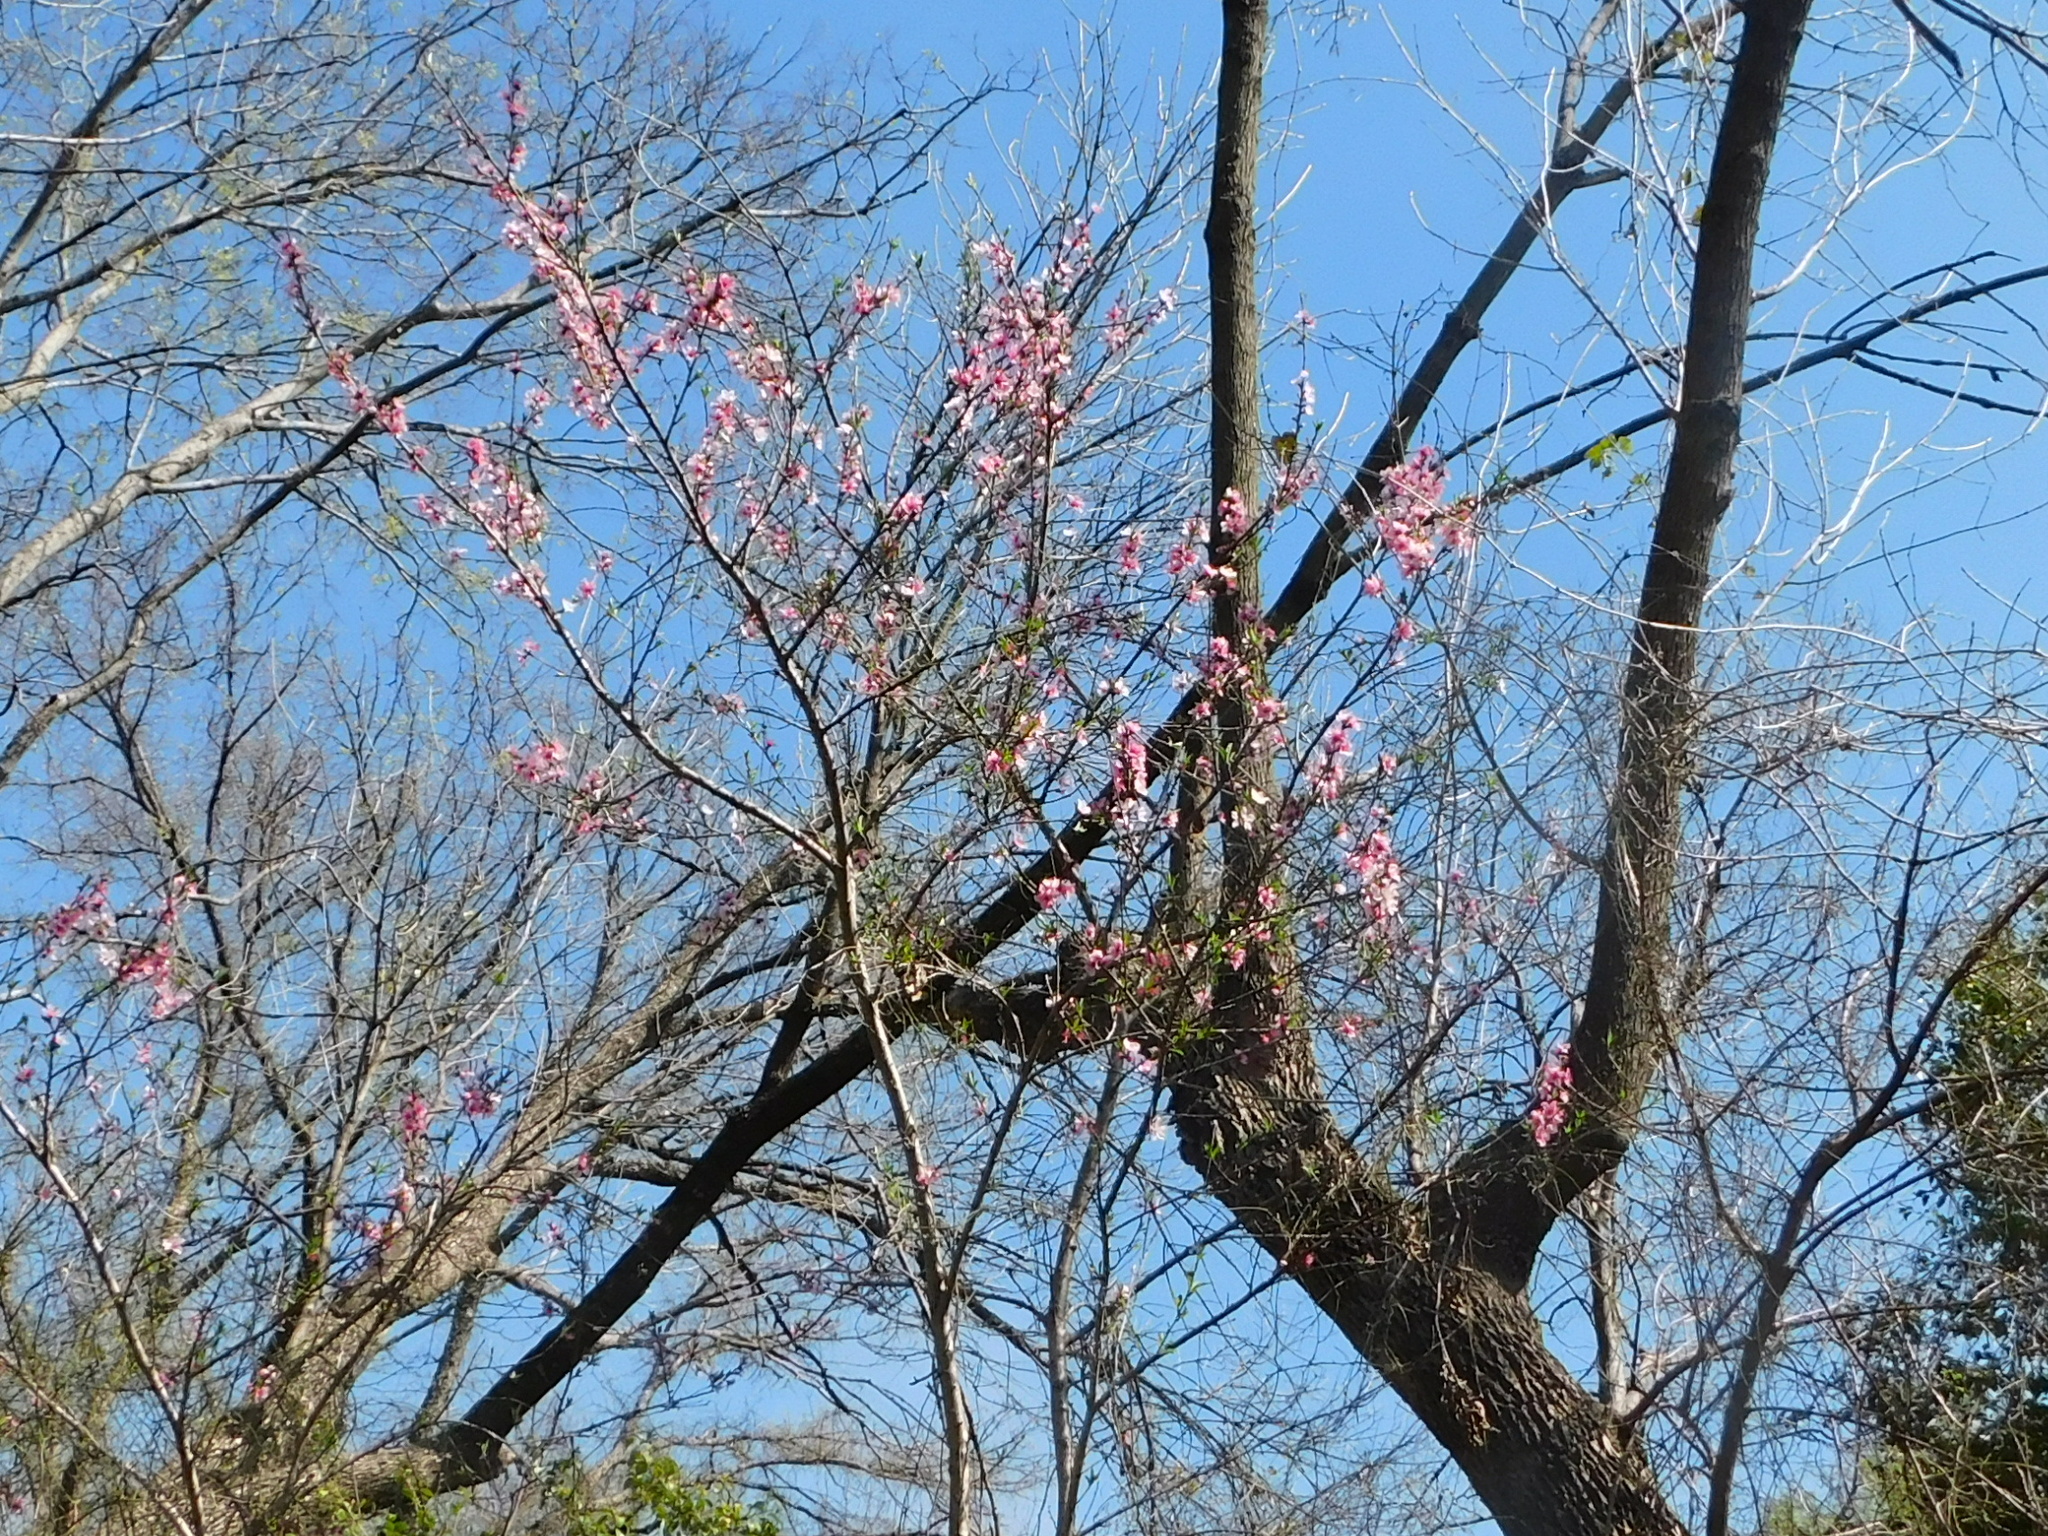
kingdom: Plantae
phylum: Tracheophyta
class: Magnoliopsida
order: Rosales
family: Rosaceae
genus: Prunus
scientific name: Prunus persica
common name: Peach
